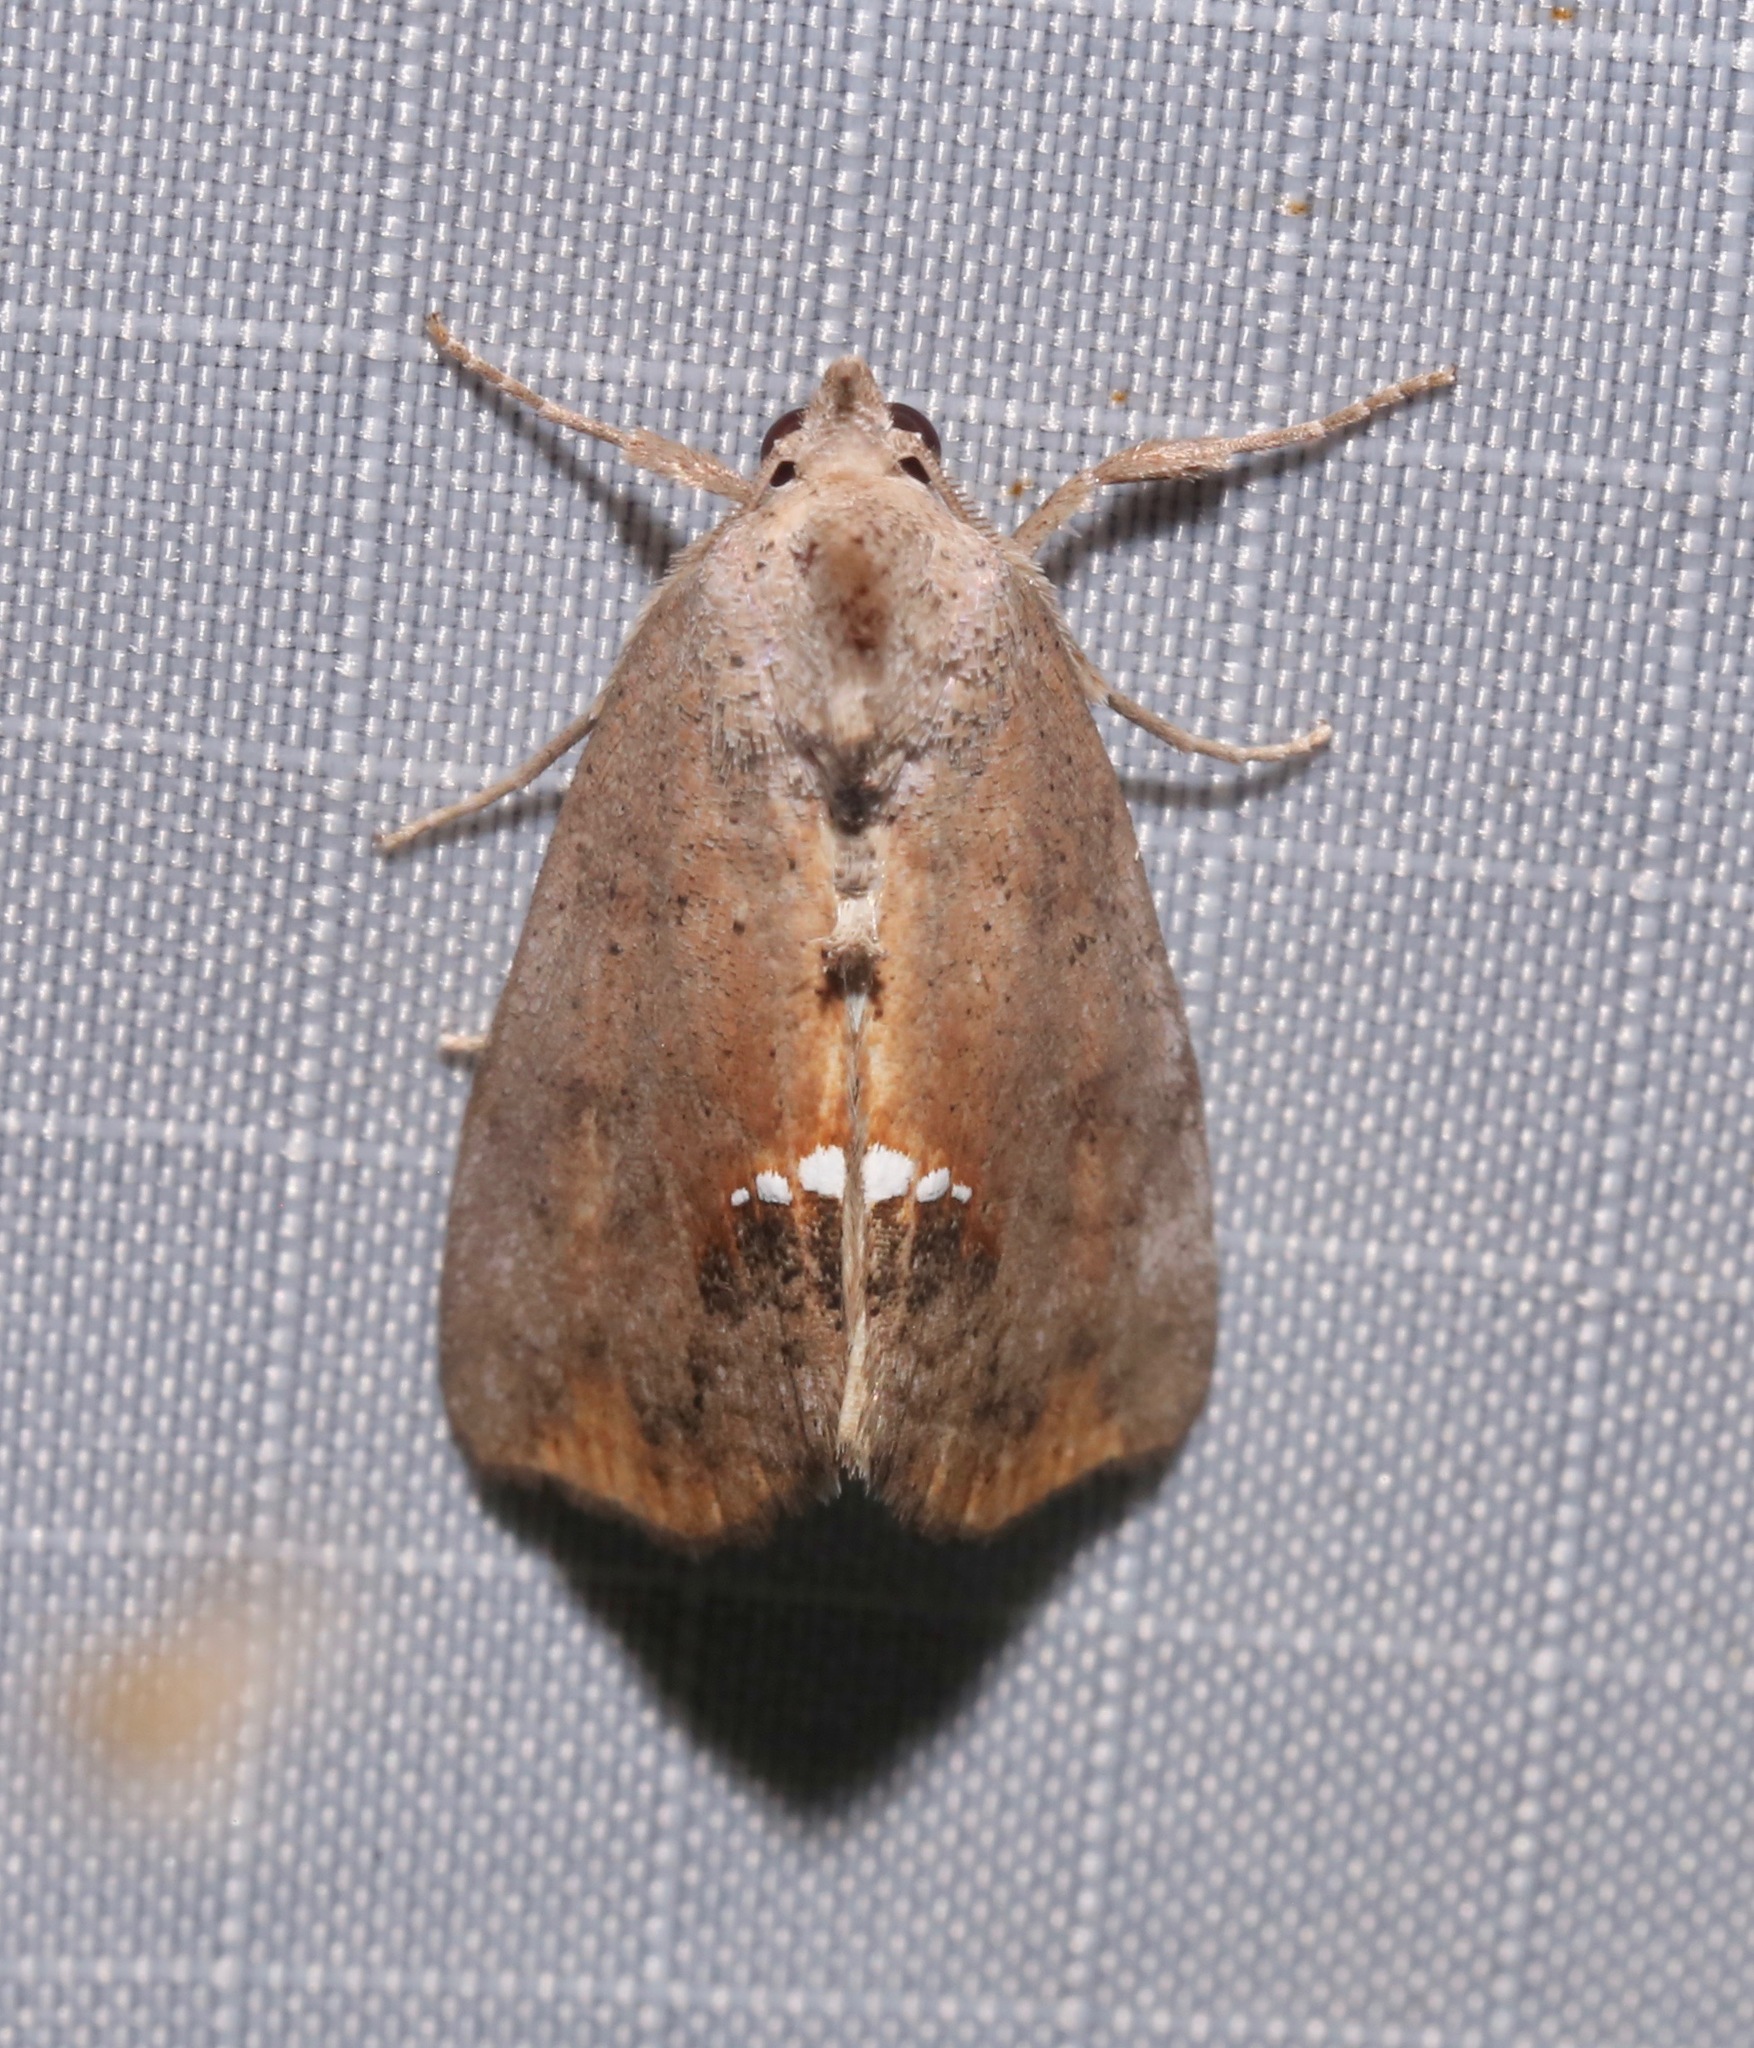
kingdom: Animalia
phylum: Arthropoda
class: Insecta
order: Lepidoptera
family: Erebidae
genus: Hypsoropha
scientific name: Hypsoropha hormos
